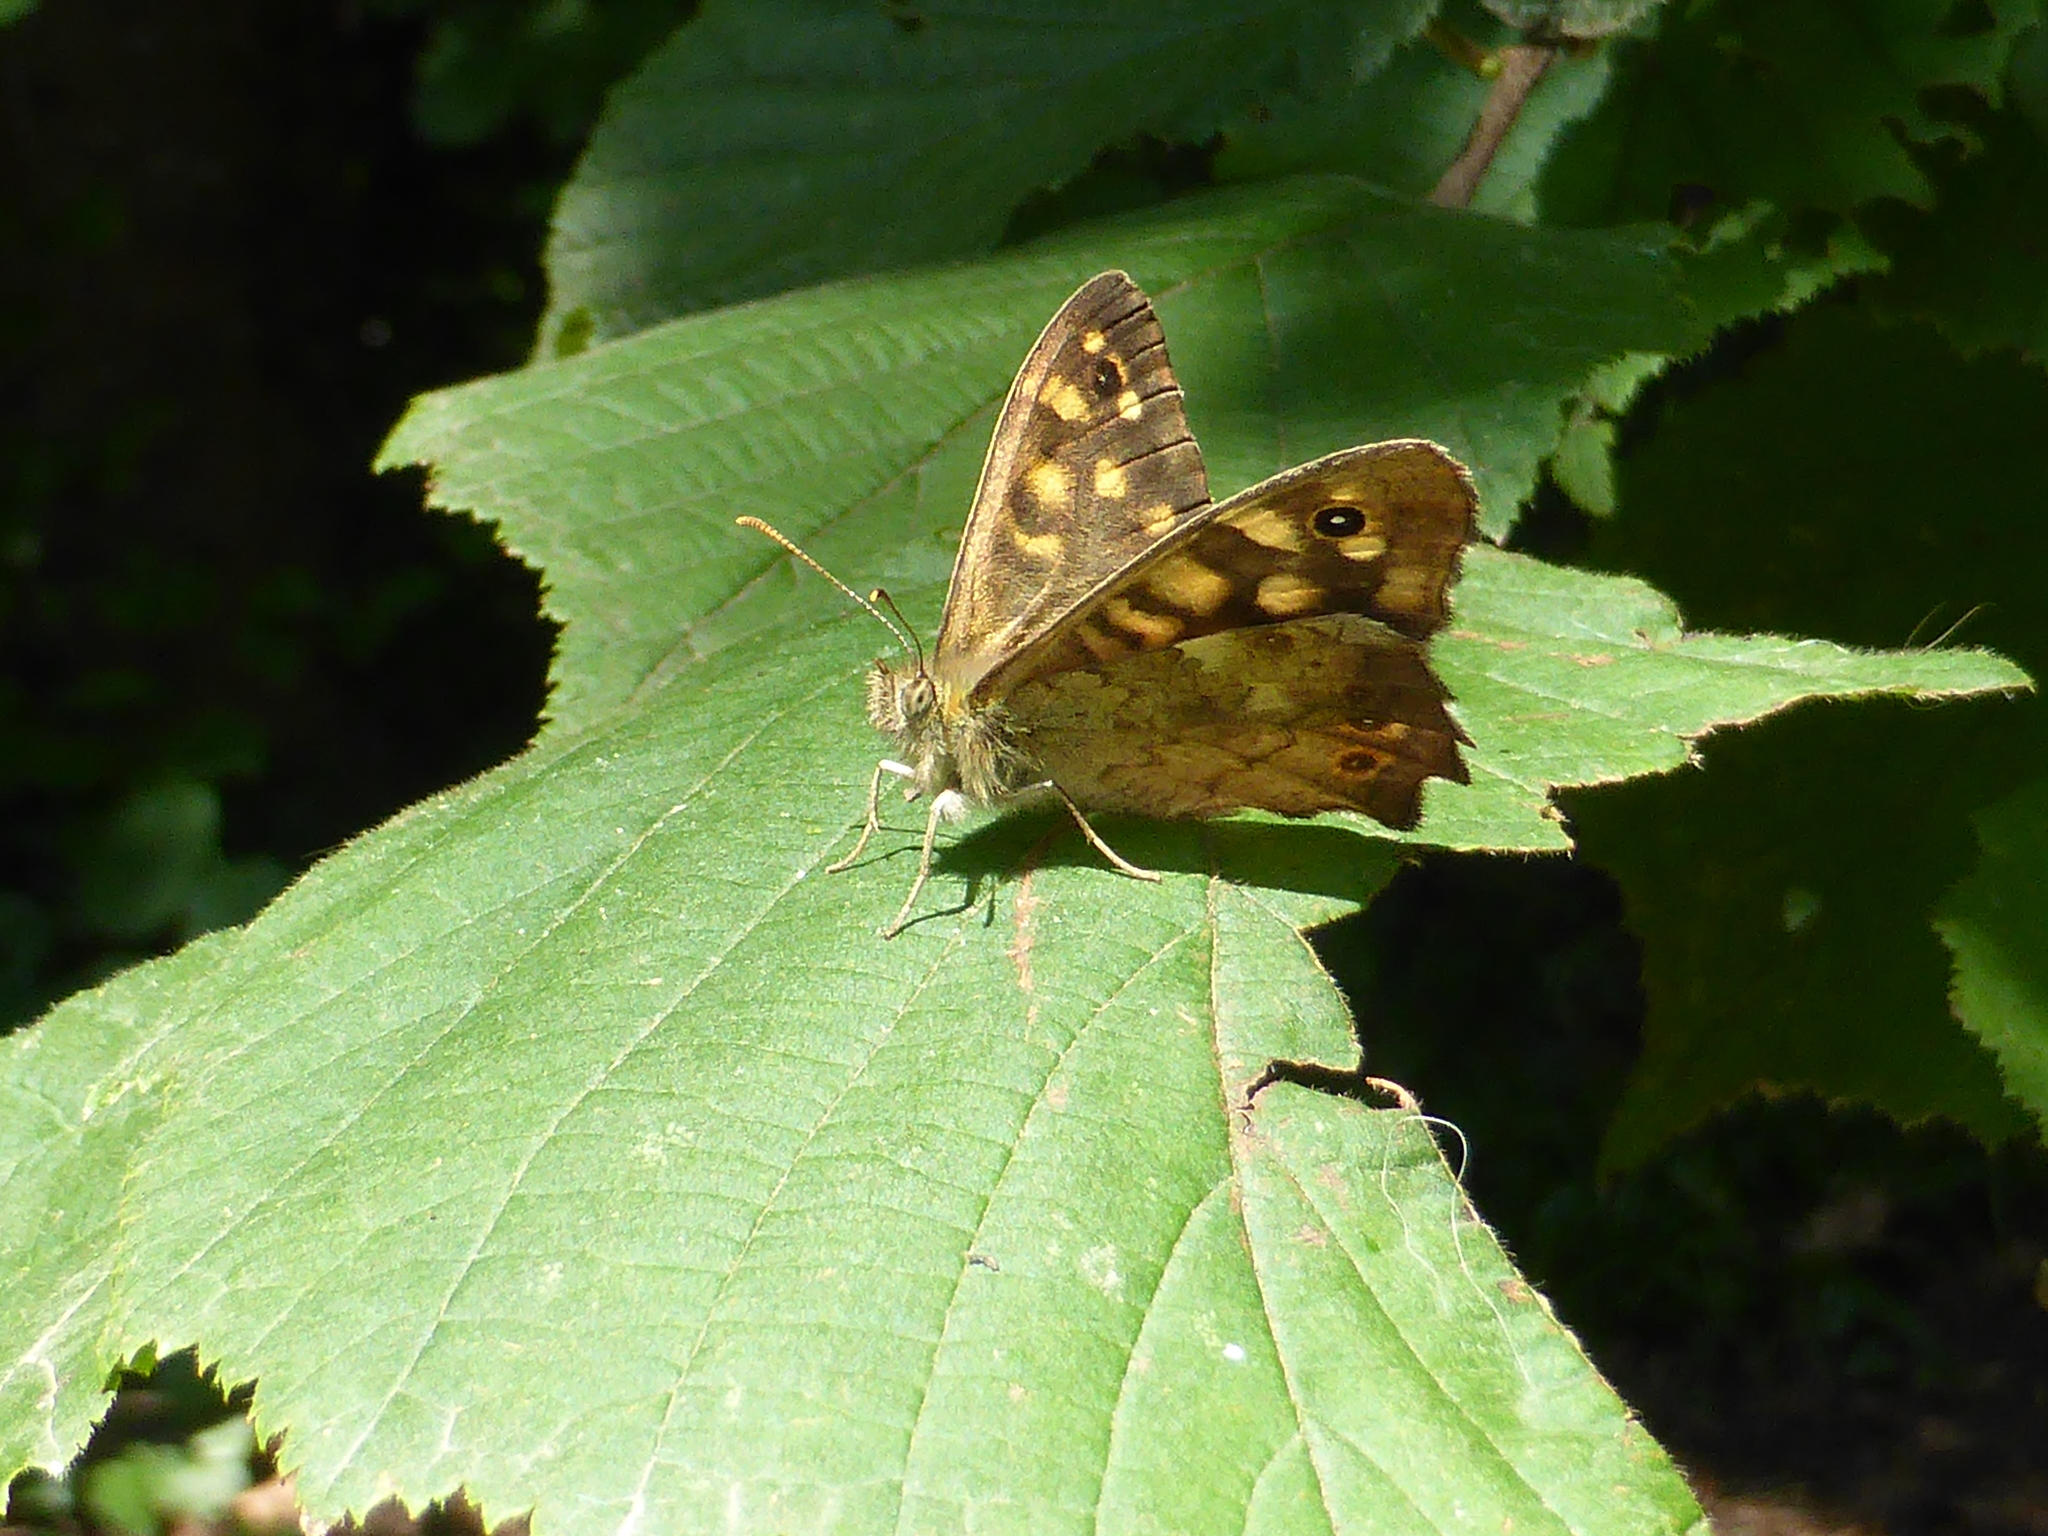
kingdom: Animalia
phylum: Arthropoda
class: Insecta
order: Lepidoptera
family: Nymphalidae
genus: Pararge
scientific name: Pararge aegeria
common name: Speckled wood
